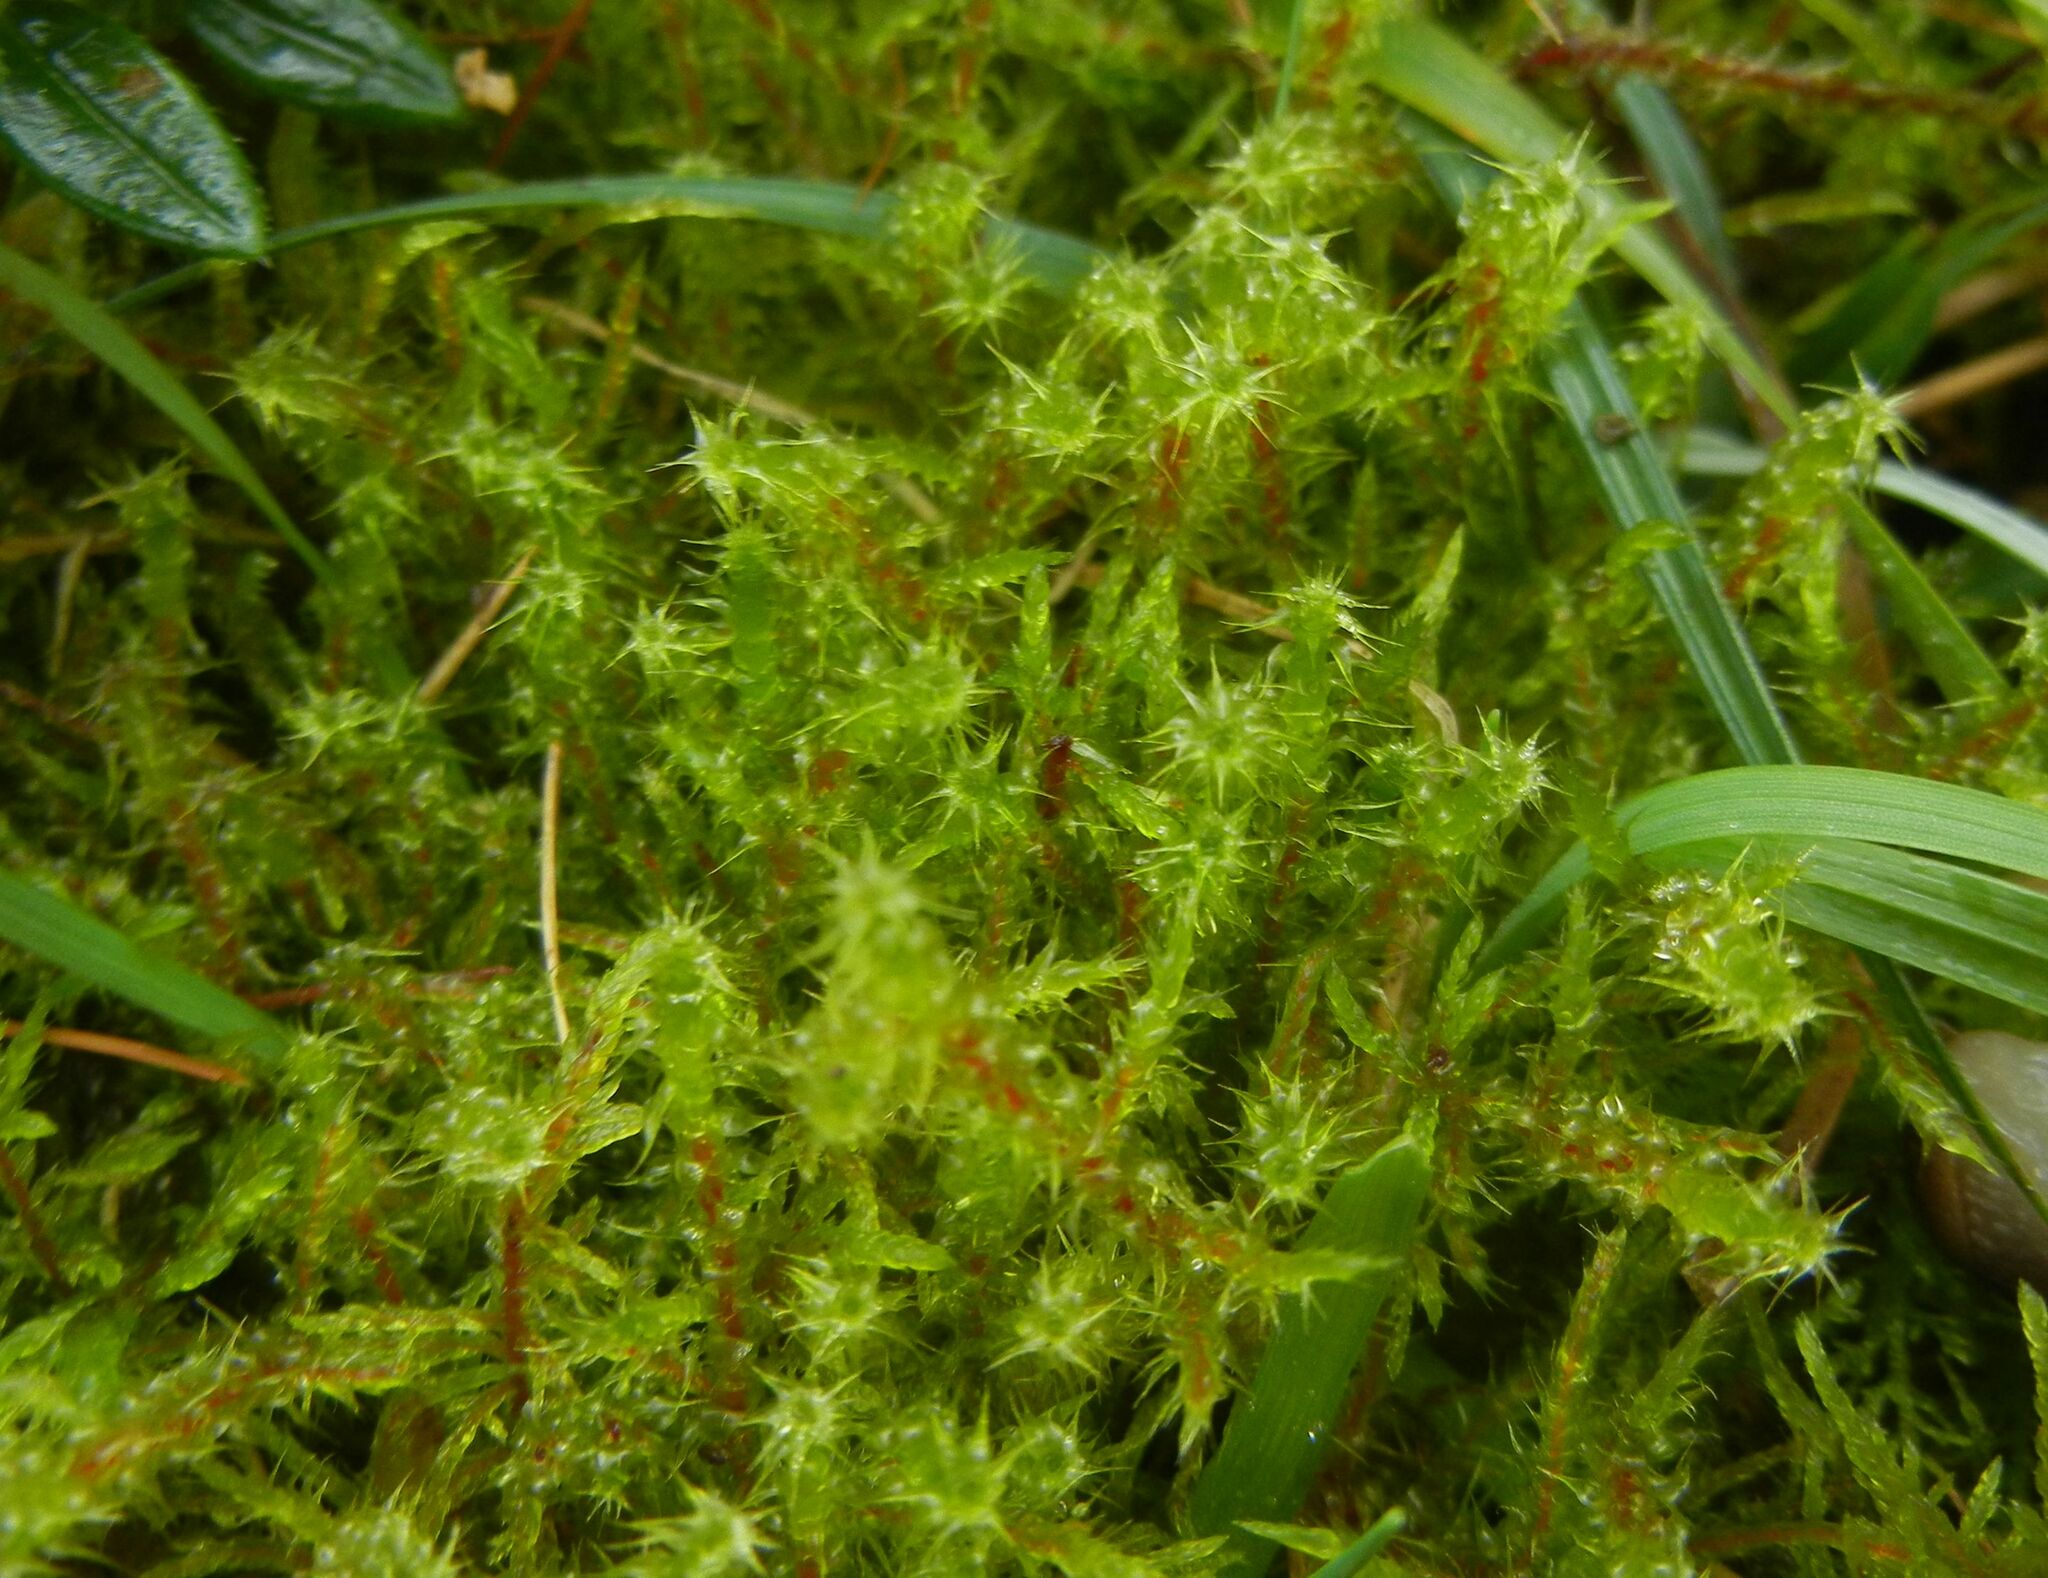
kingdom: Plantae
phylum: Bryophyta
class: Bryopsida
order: Hypnales
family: Hylocomiaceae
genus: Rhytidiadelphus
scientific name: Rhytidiadelphus squarrosus
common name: Springy turf-moss
